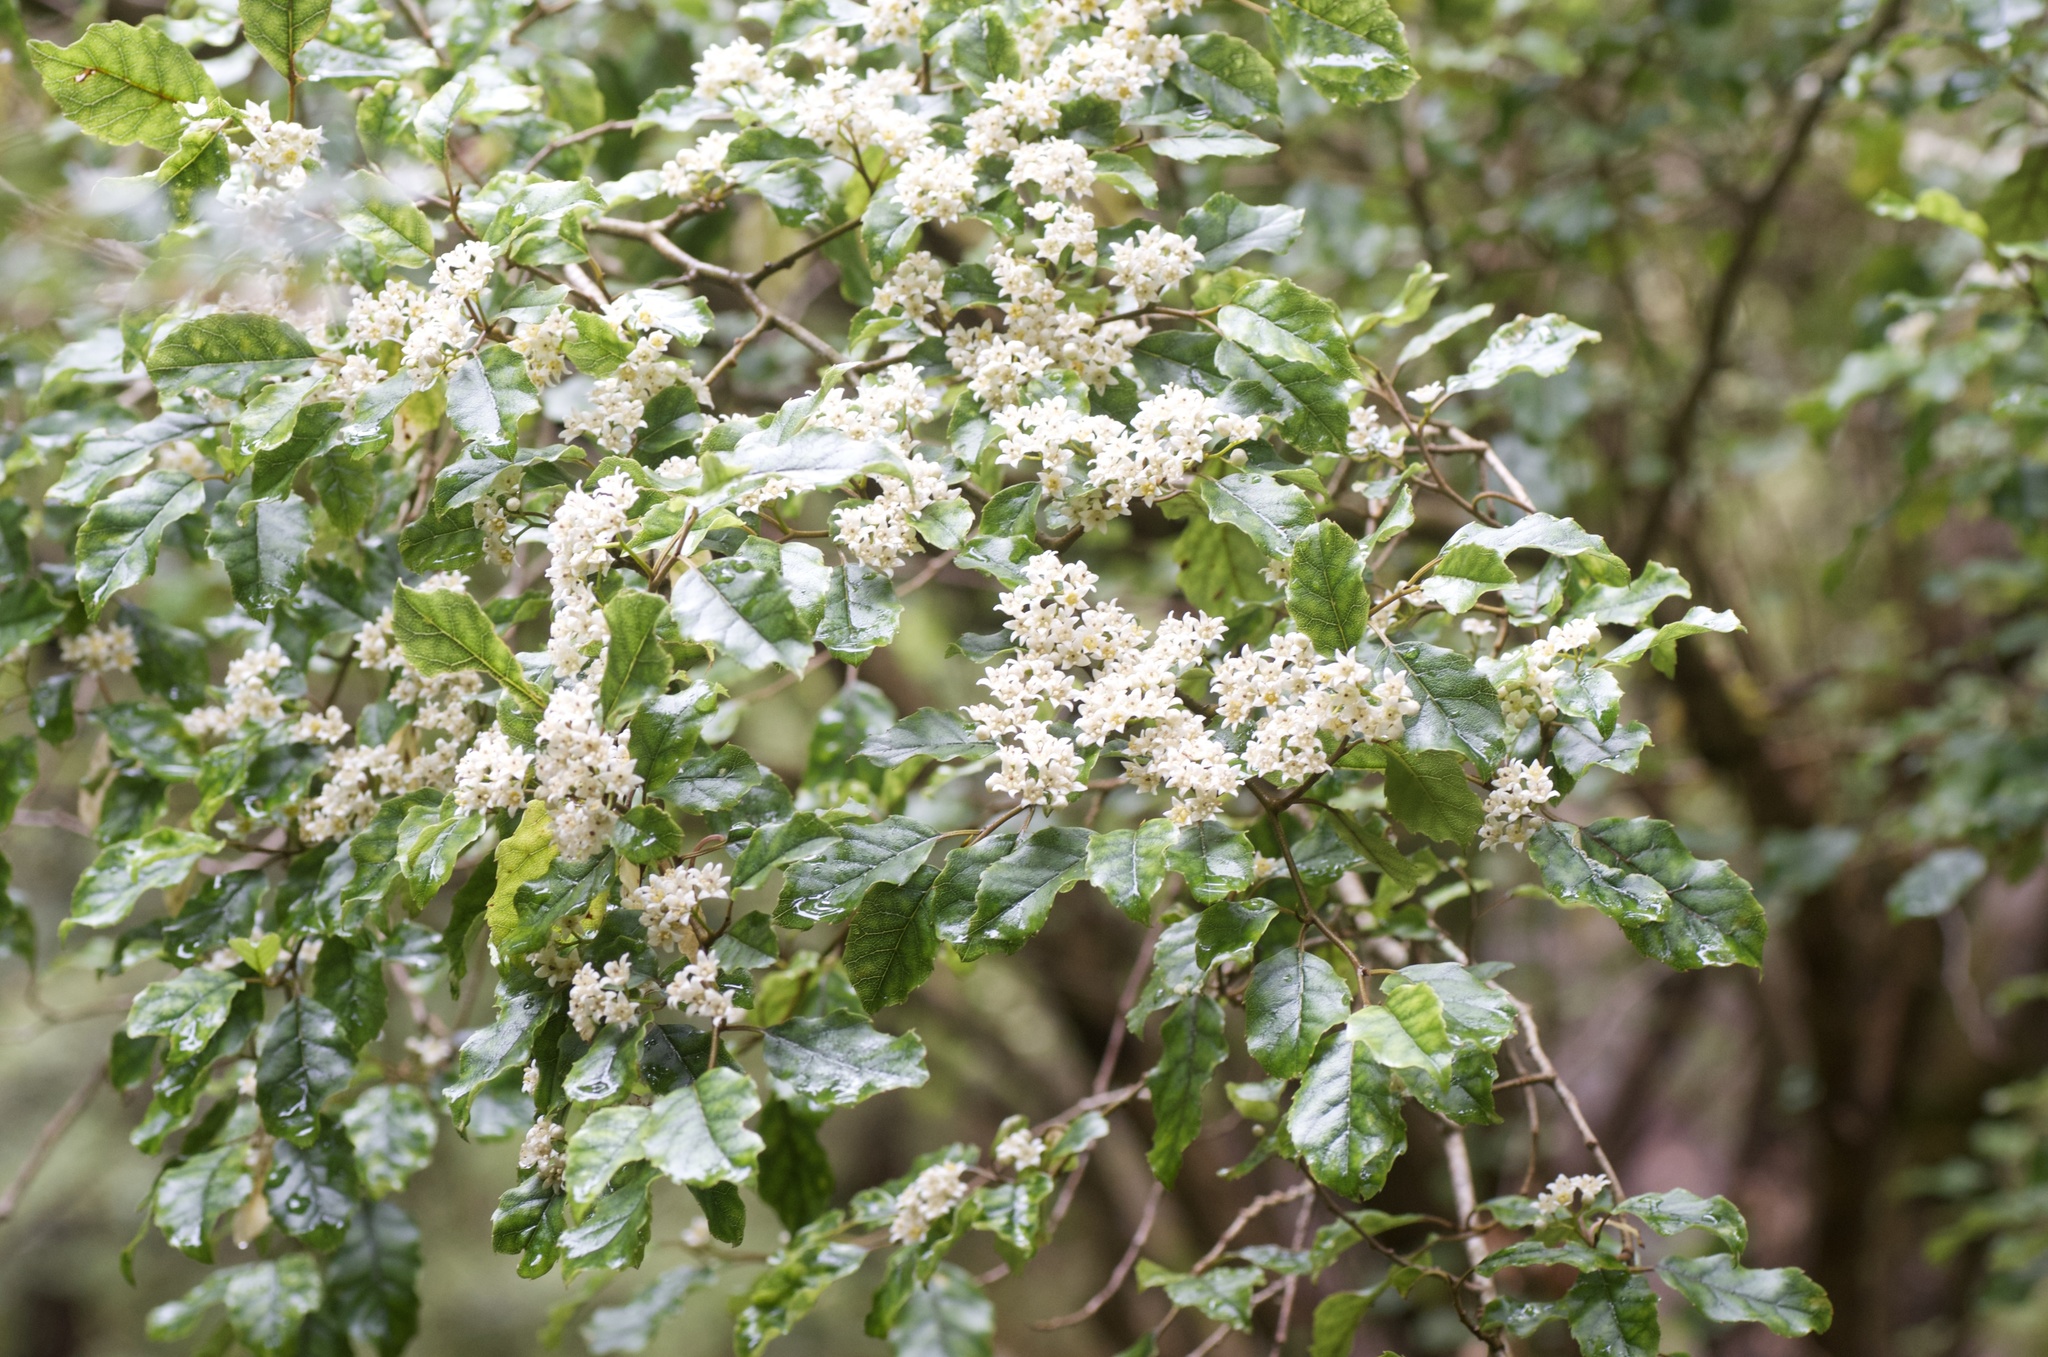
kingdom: Plantae
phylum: Tracheophyta
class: Magnoliopsida
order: Asterales
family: Rousseaceae
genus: Carpodetus
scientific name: Carpodetus serratus
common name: White mapau
